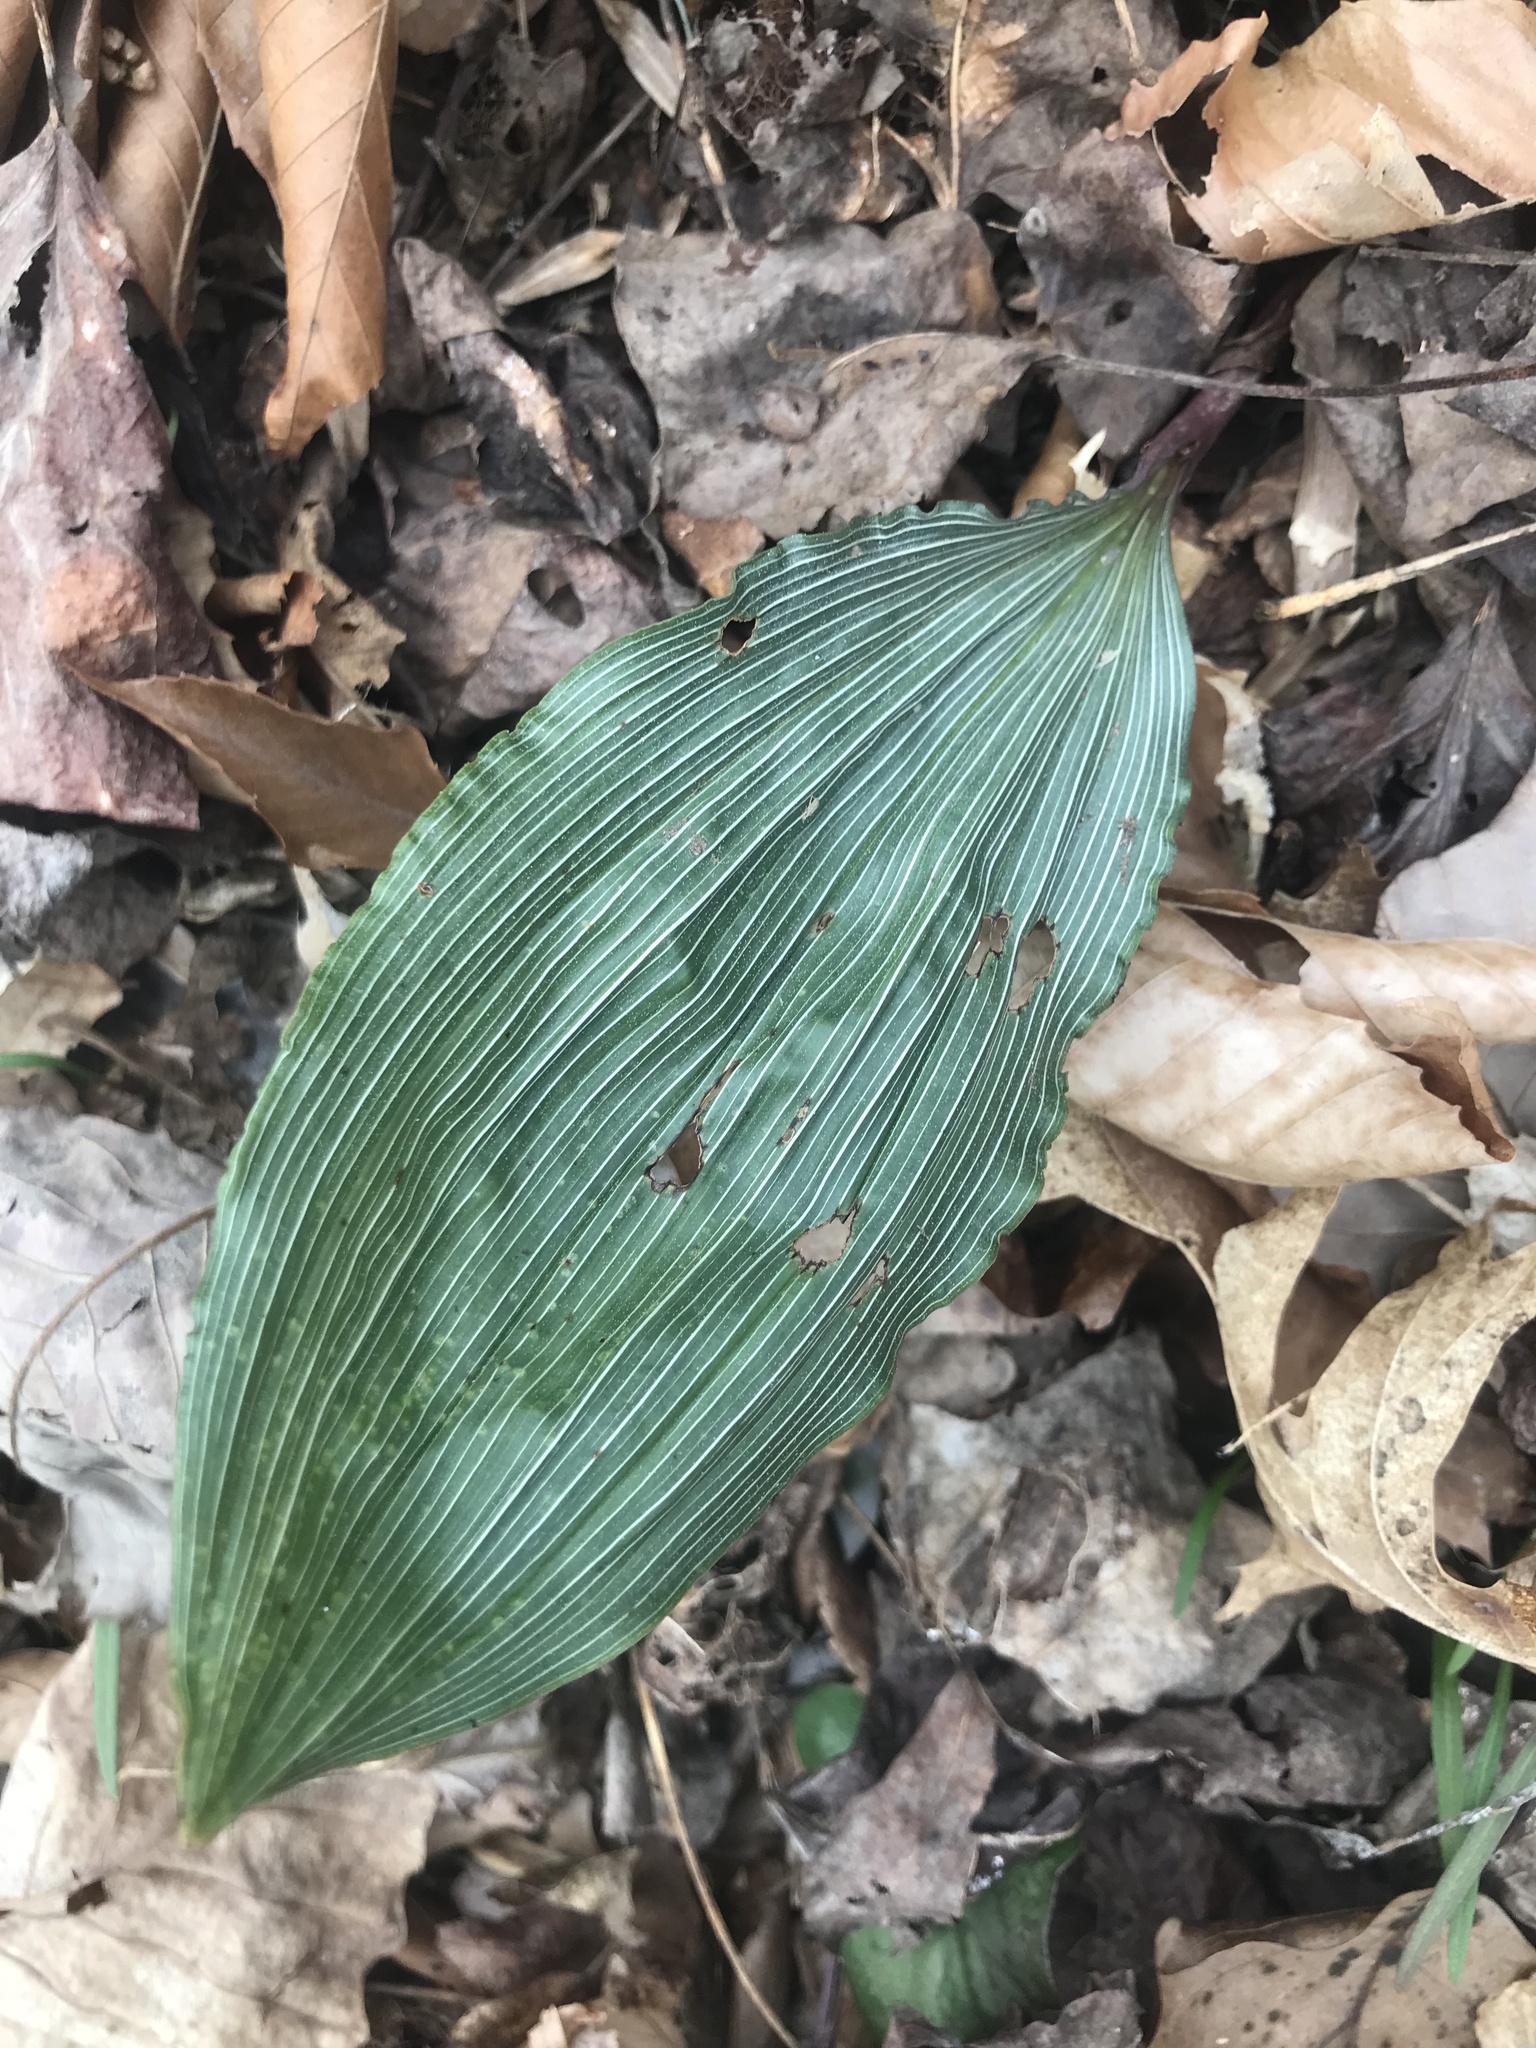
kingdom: Plantae
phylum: Tracheophyta
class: Liliopsida
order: Asparagales
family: Orchidaceae
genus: Aplectrum
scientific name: Aplectrum hyemale
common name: Adam-and-eve
